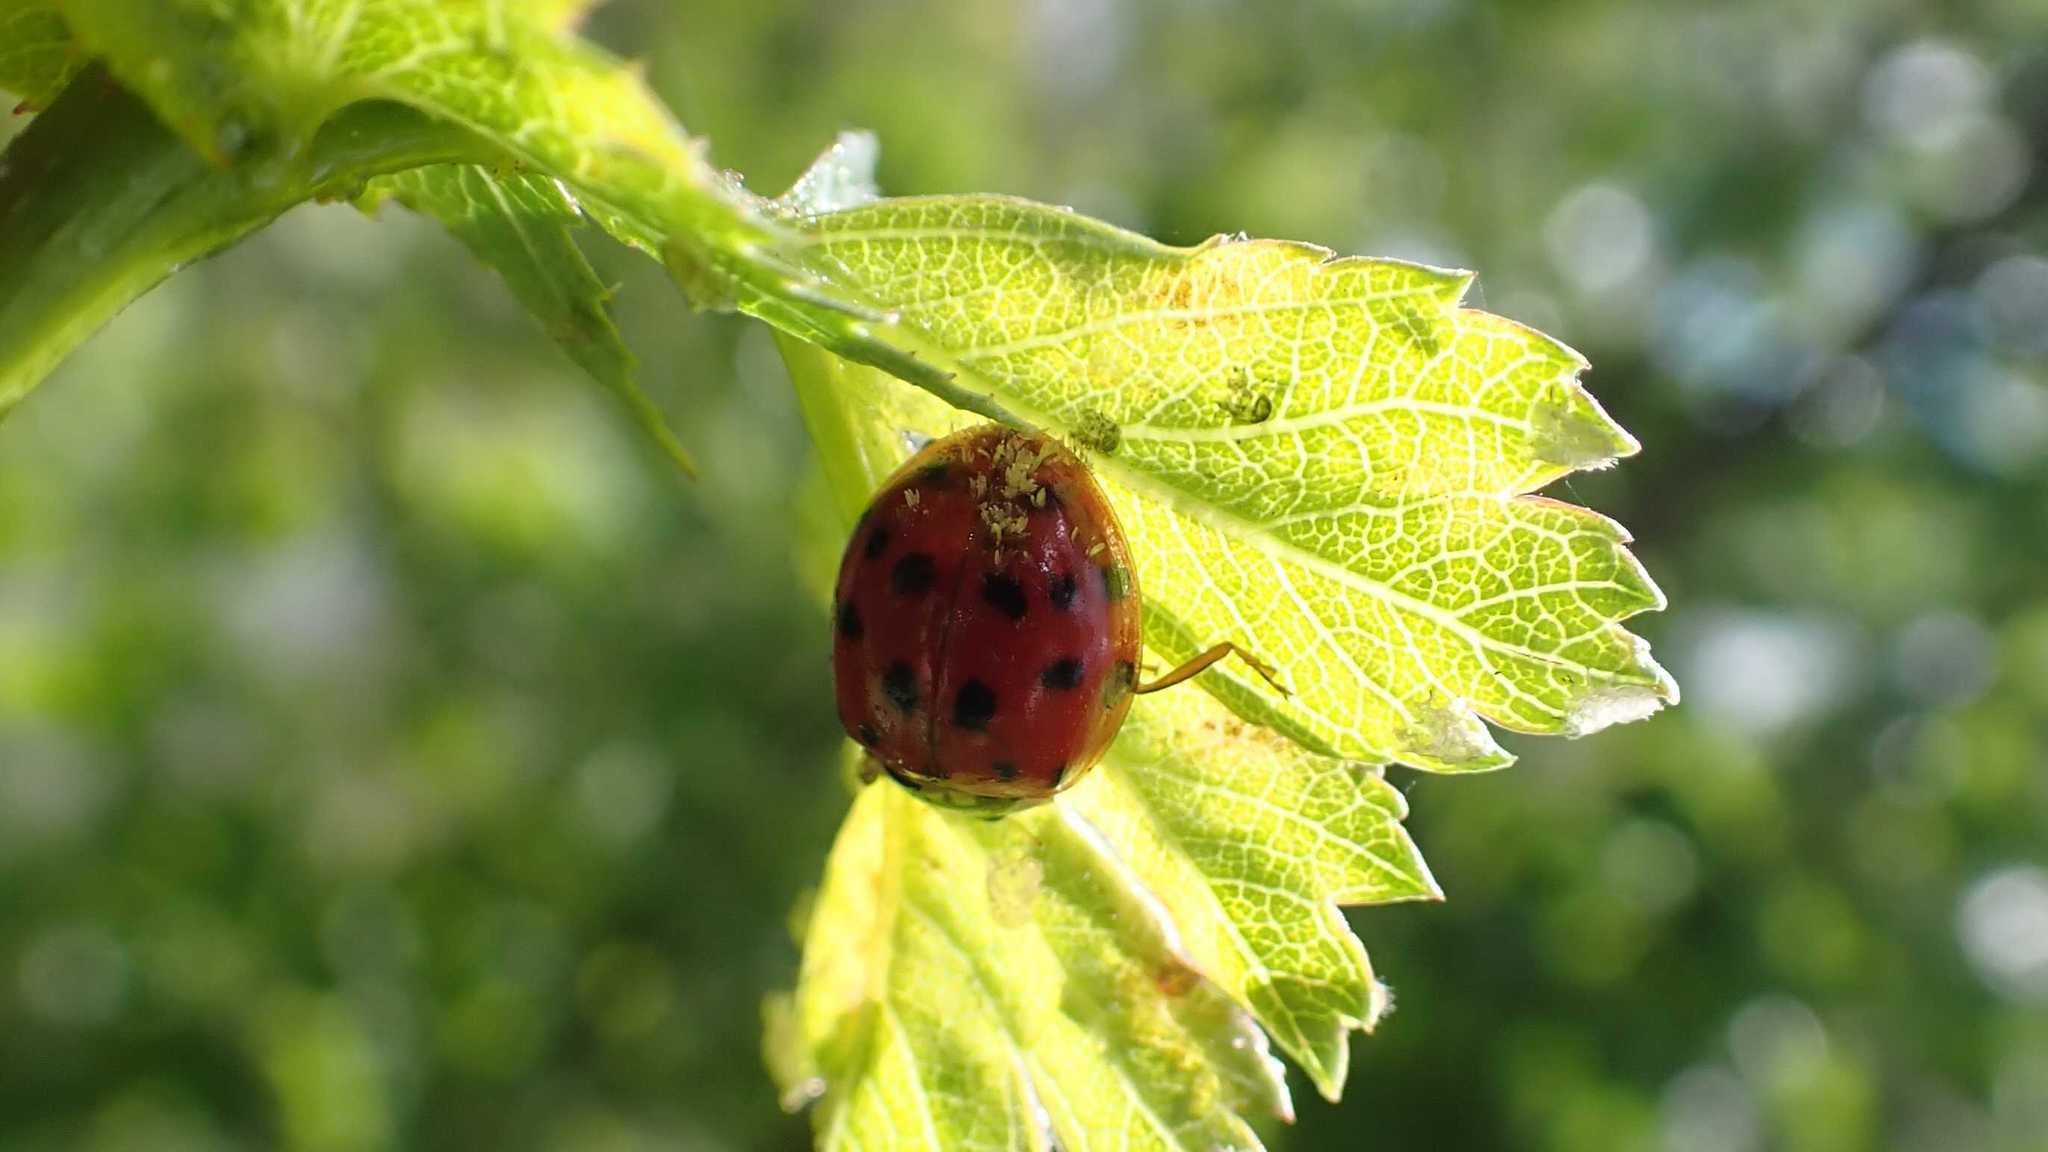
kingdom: Fungi
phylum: Ascomycota
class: Laboulbeniomycetes
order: Laboulbeniales
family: Laboulbeniaceae
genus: Hesperomyces
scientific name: Hesperomyces harmoniae
